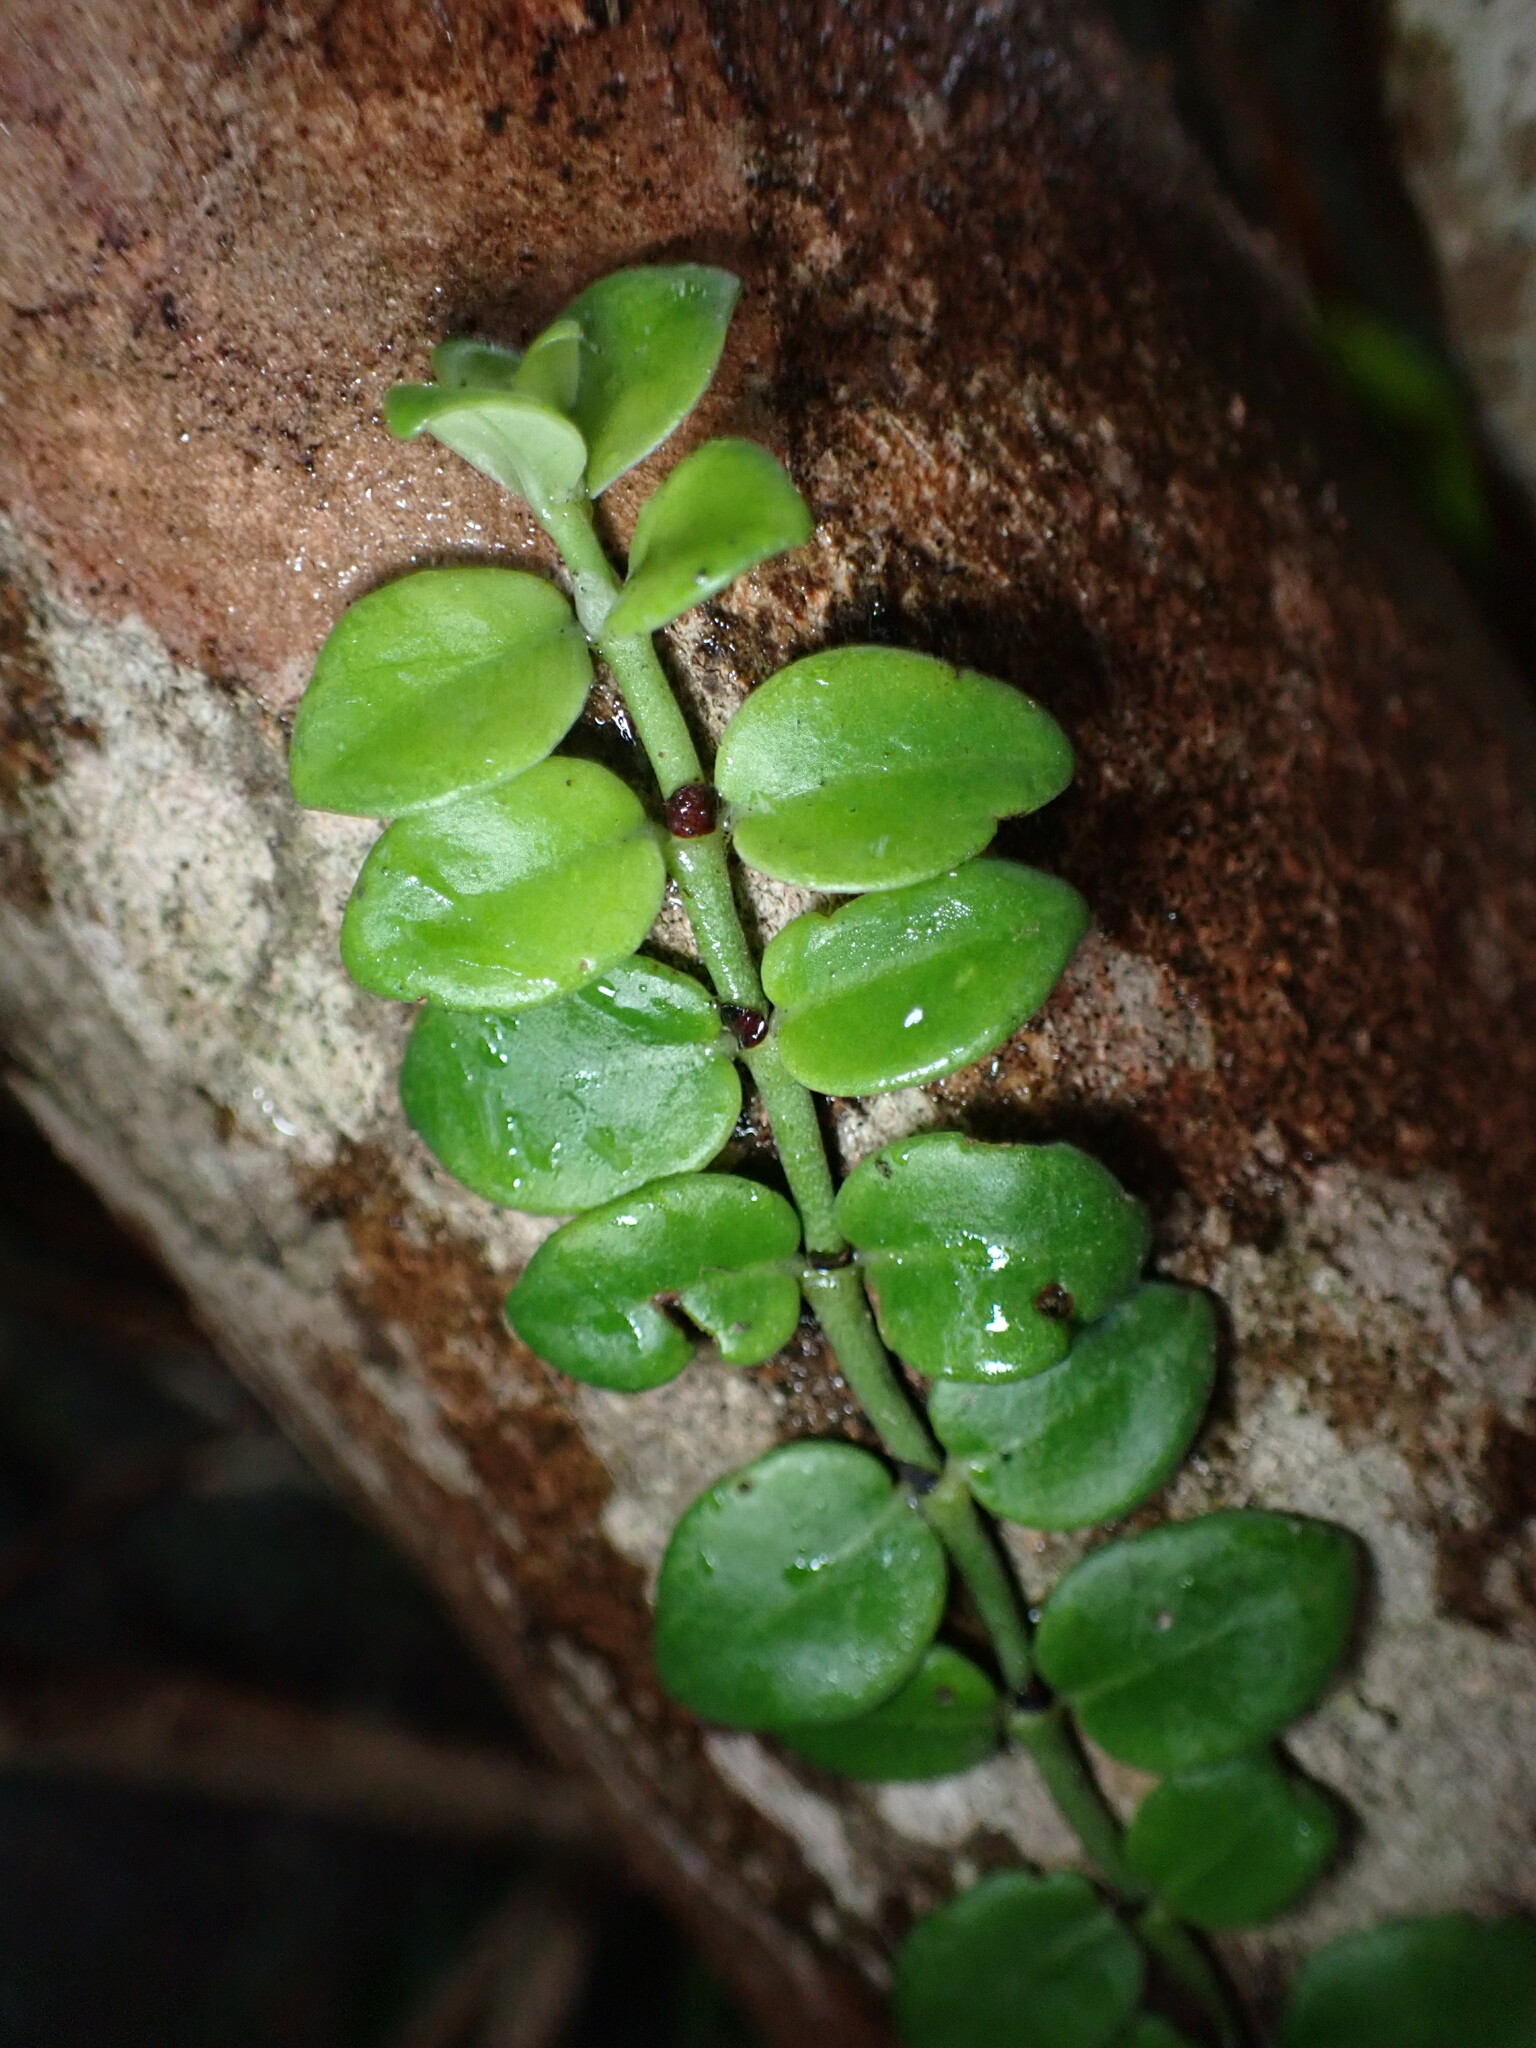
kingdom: Plantae
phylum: Tracheophyta
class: Magnoliopsida
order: Gentianales
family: Rubiaceae
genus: Psychotria
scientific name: Psychotria serpens
